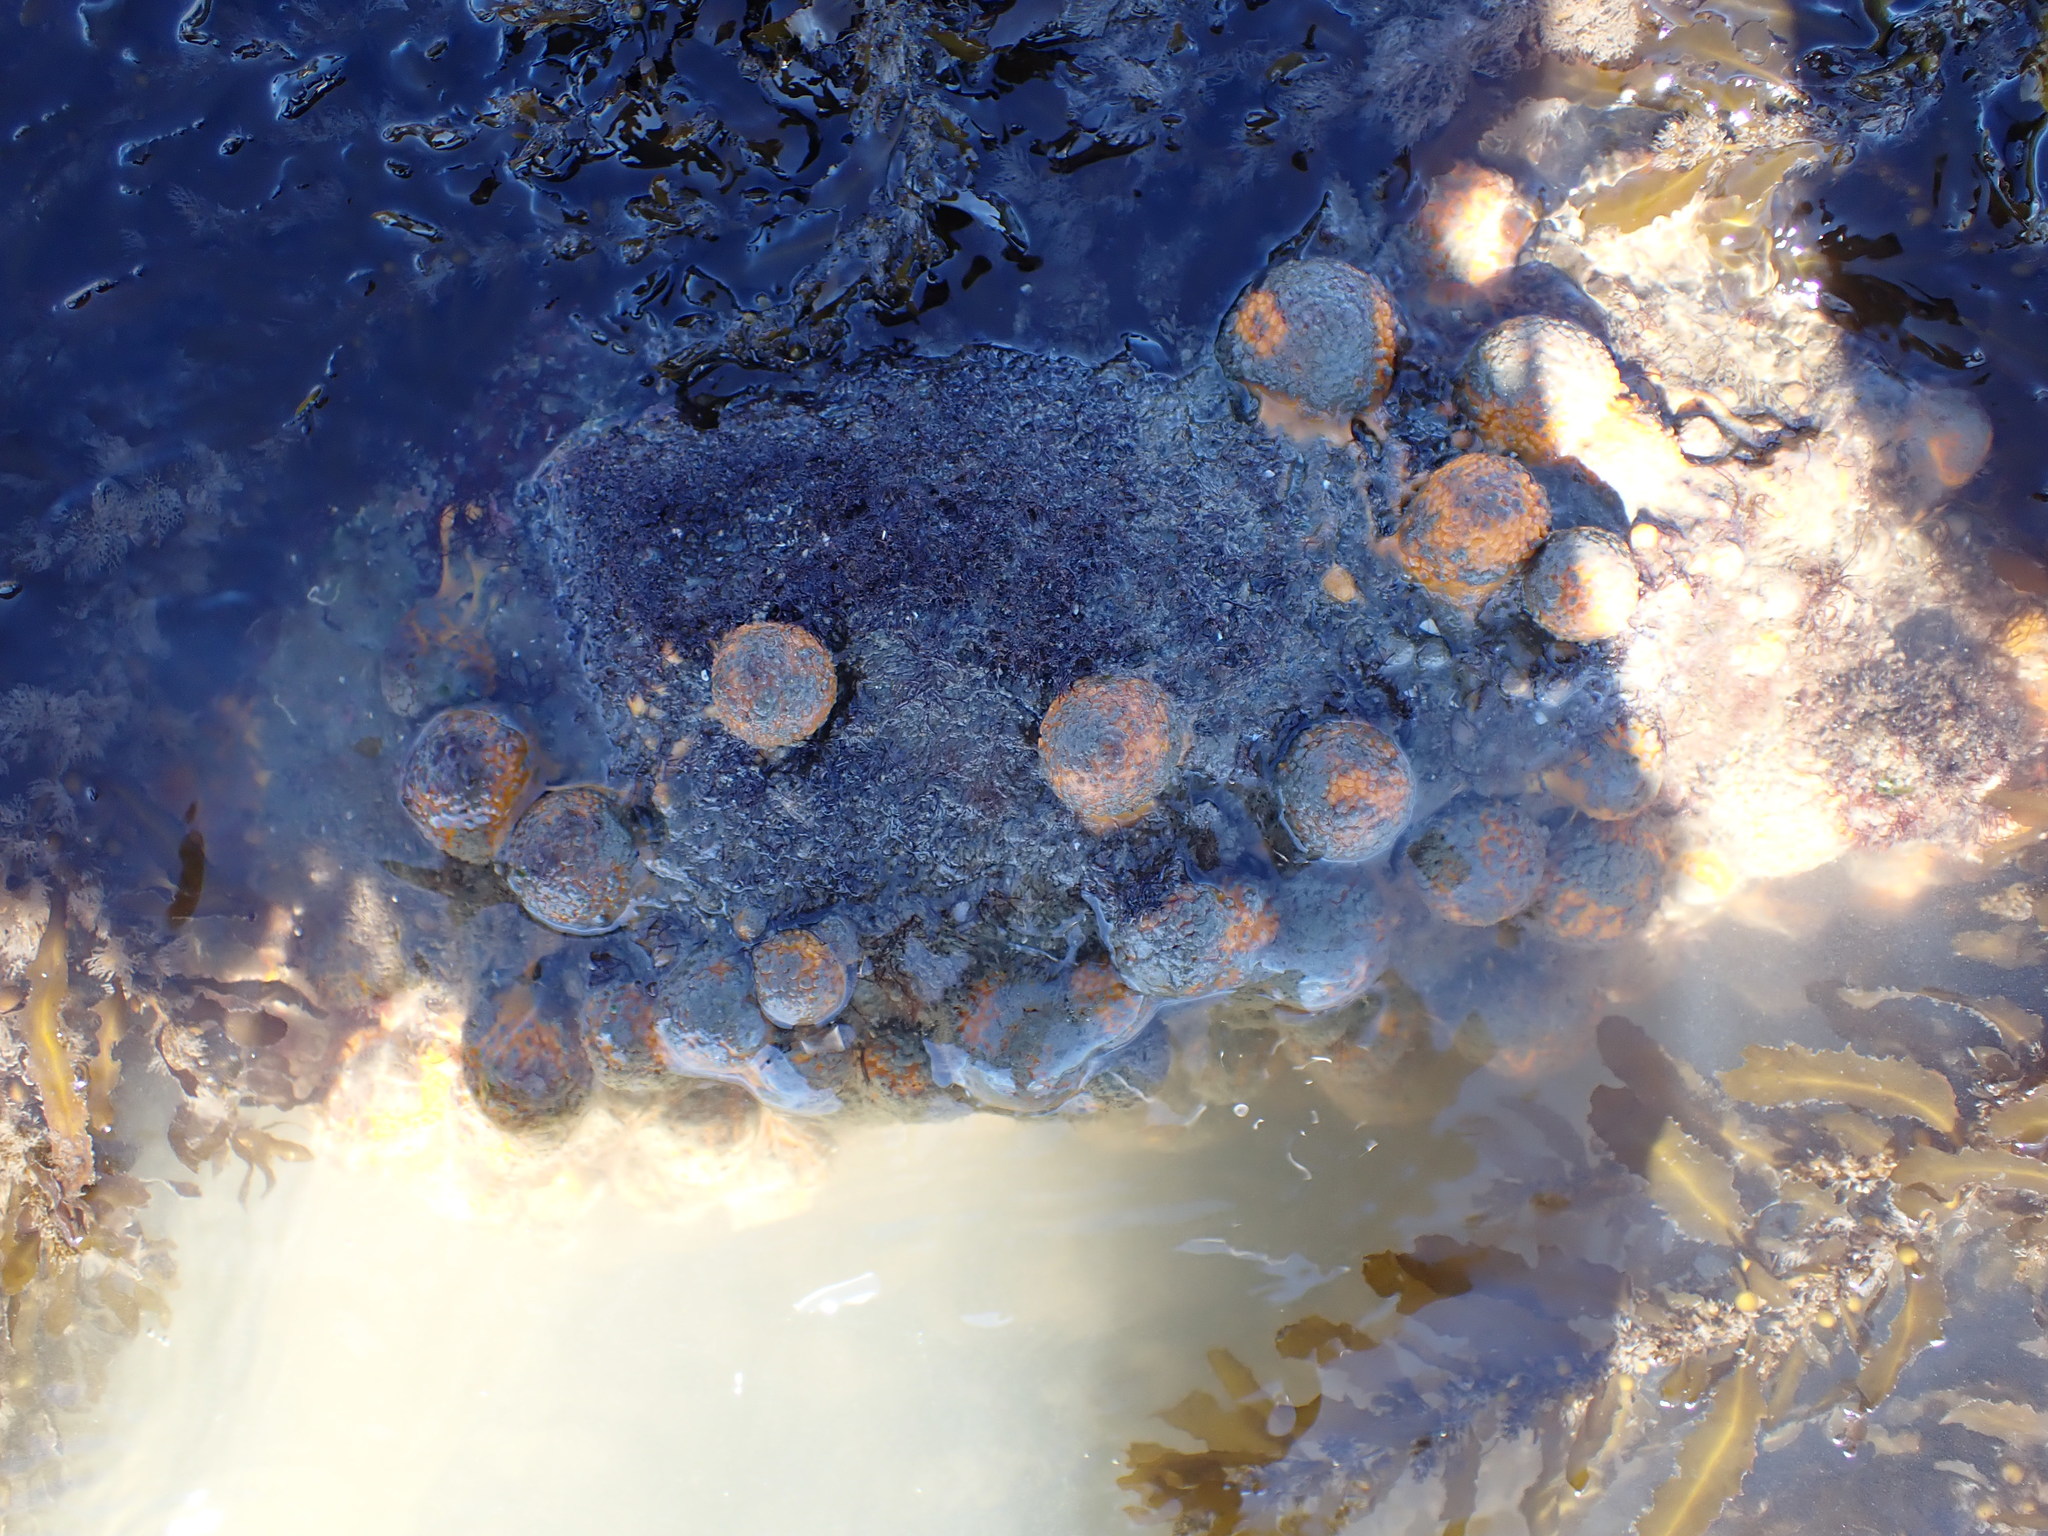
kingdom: Animalia
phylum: Porifera
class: Demospongiae
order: Tethyida
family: Tethyidae
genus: Tethya
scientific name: Tethya burtoni
